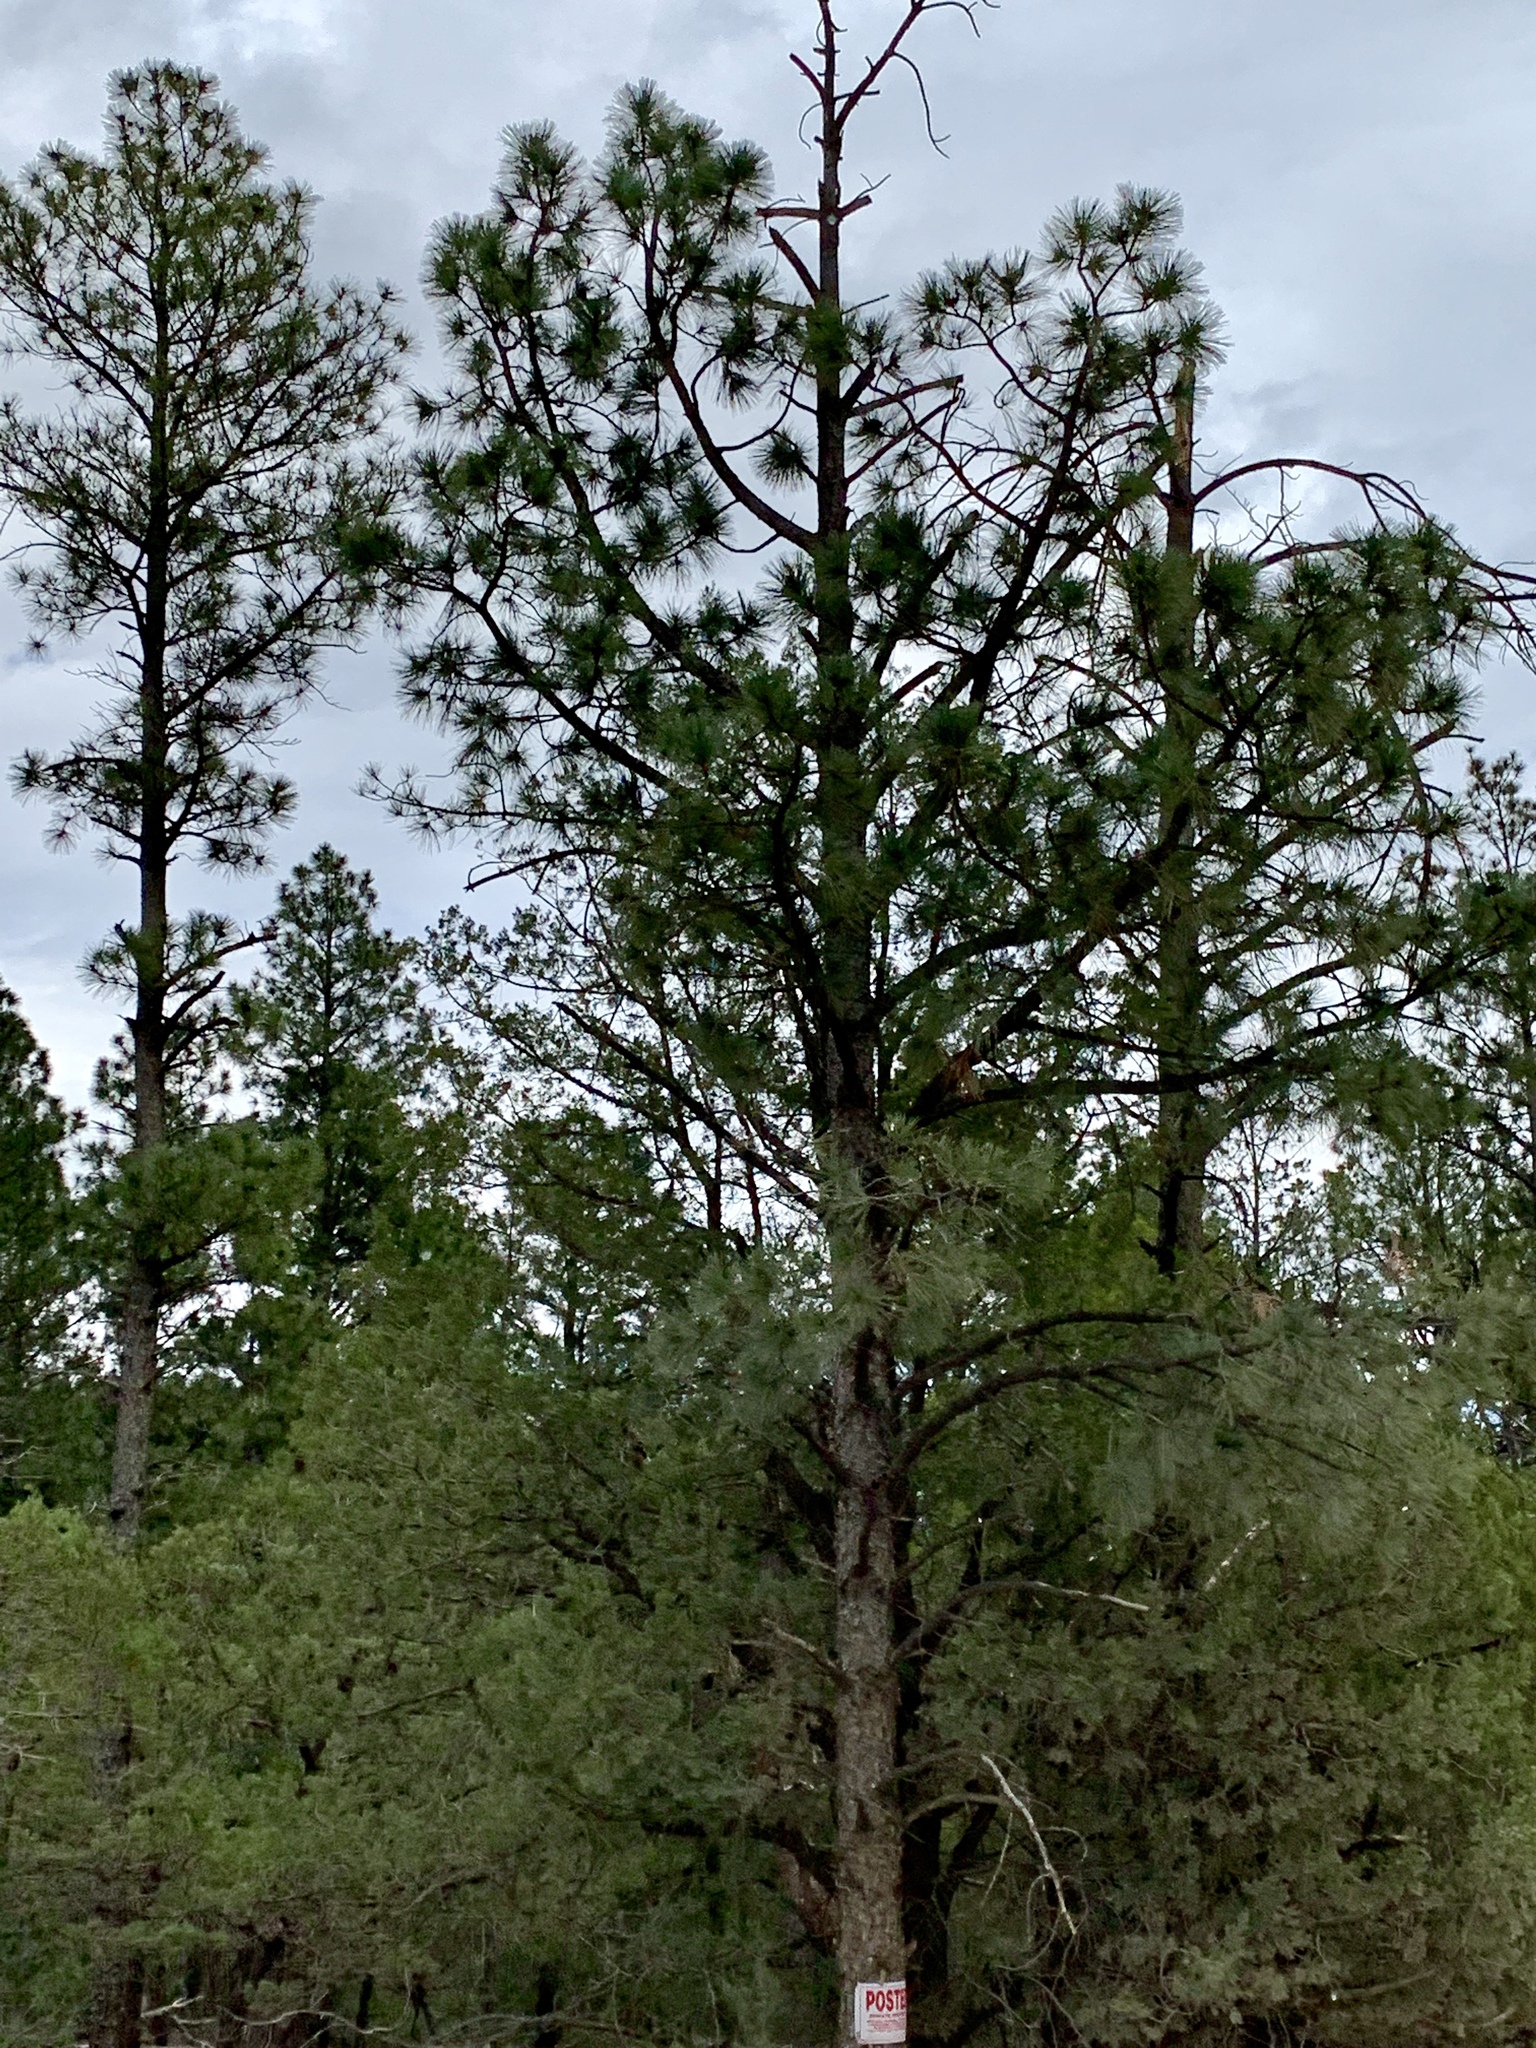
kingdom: Plantae
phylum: Tracheophyta
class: Pinopsida
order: Pinales
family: Pinaceae
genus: Pinus
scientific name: Pinus ponderosa
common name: Western yellow-pine
